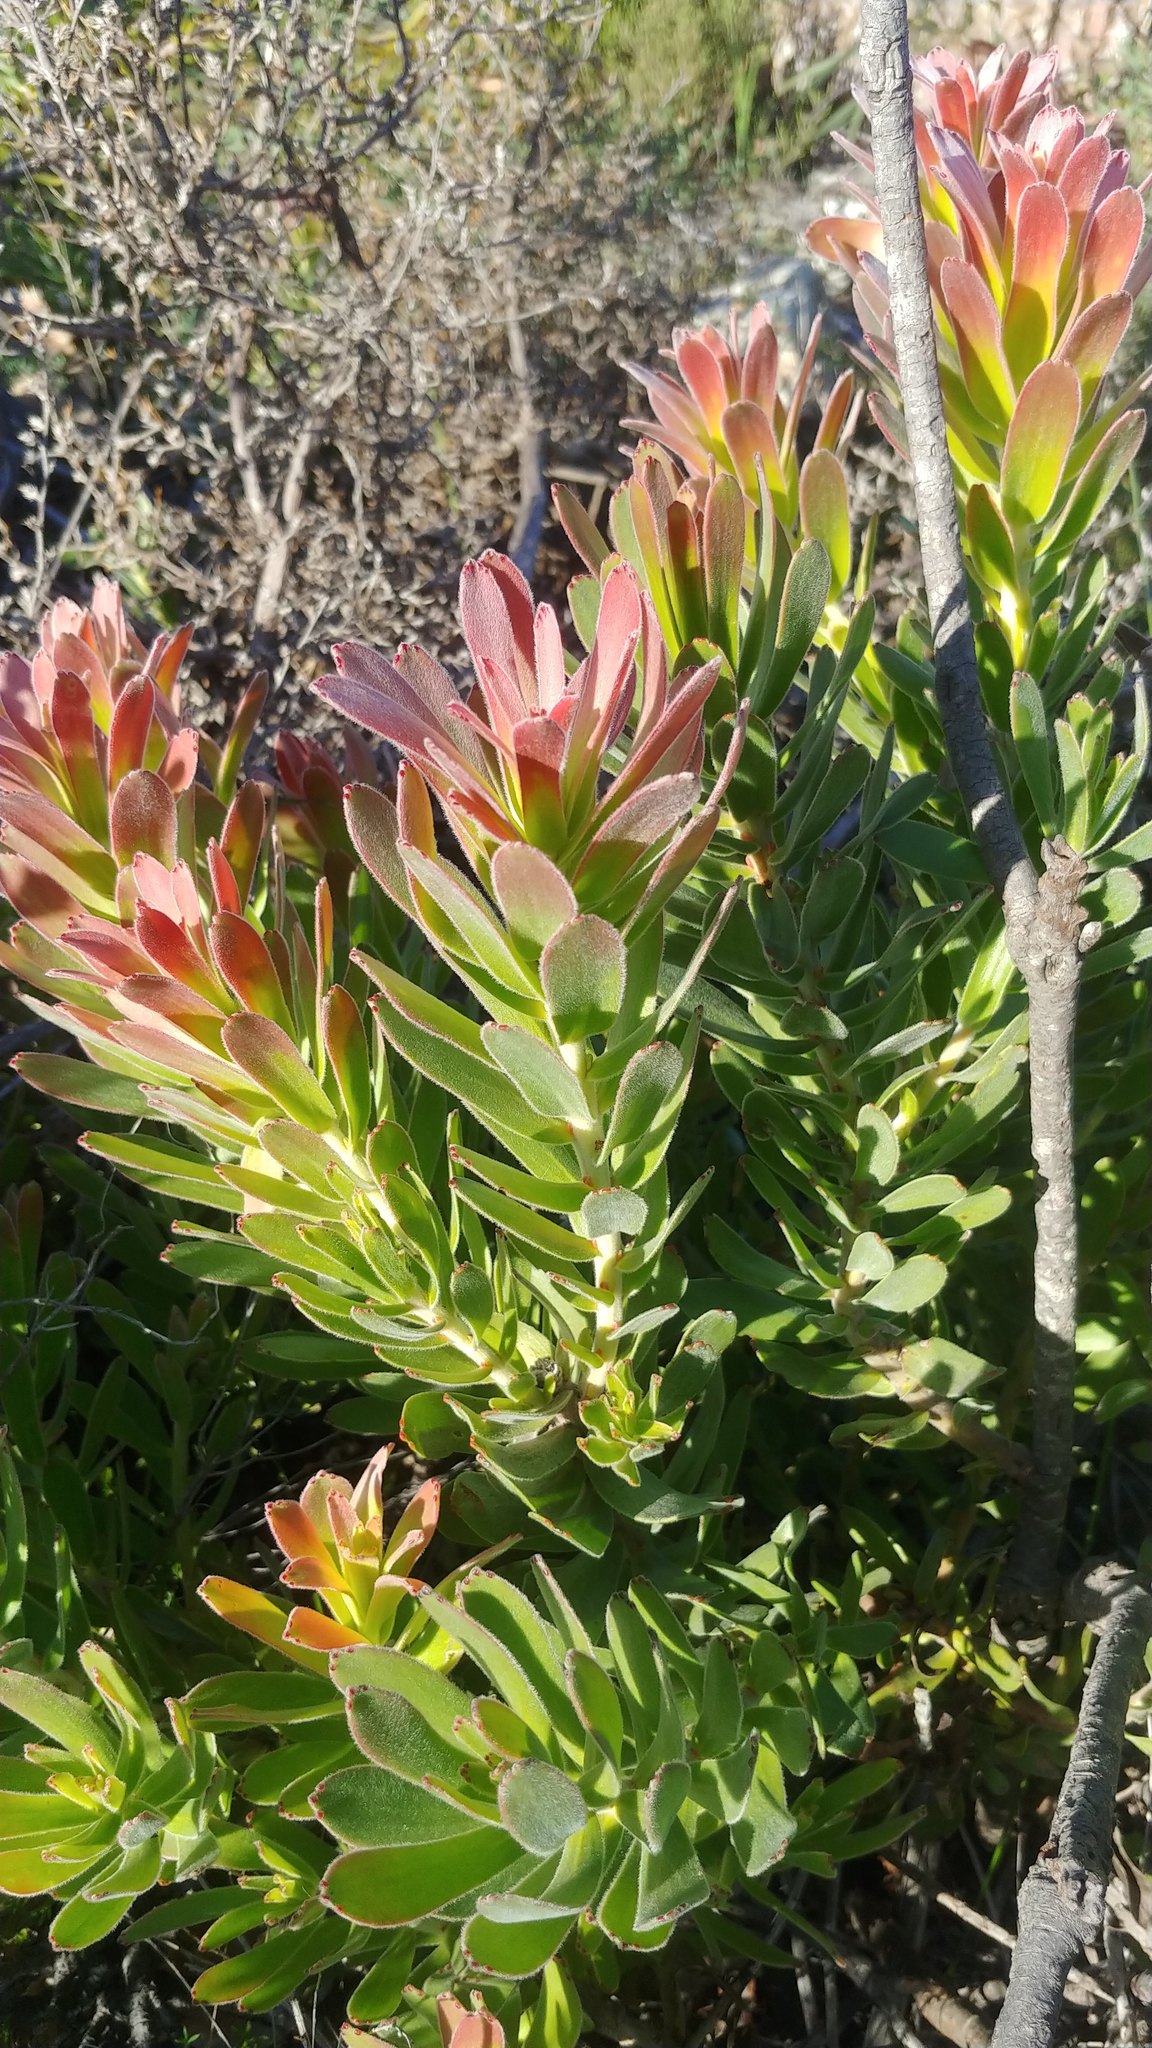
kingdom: Plantae
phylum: Tracheophyta
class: Magnoliopsida
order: Proteales
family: Proteaceae
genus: Mimetes
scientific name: Mimetes cucullatus
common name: Common pagoda
